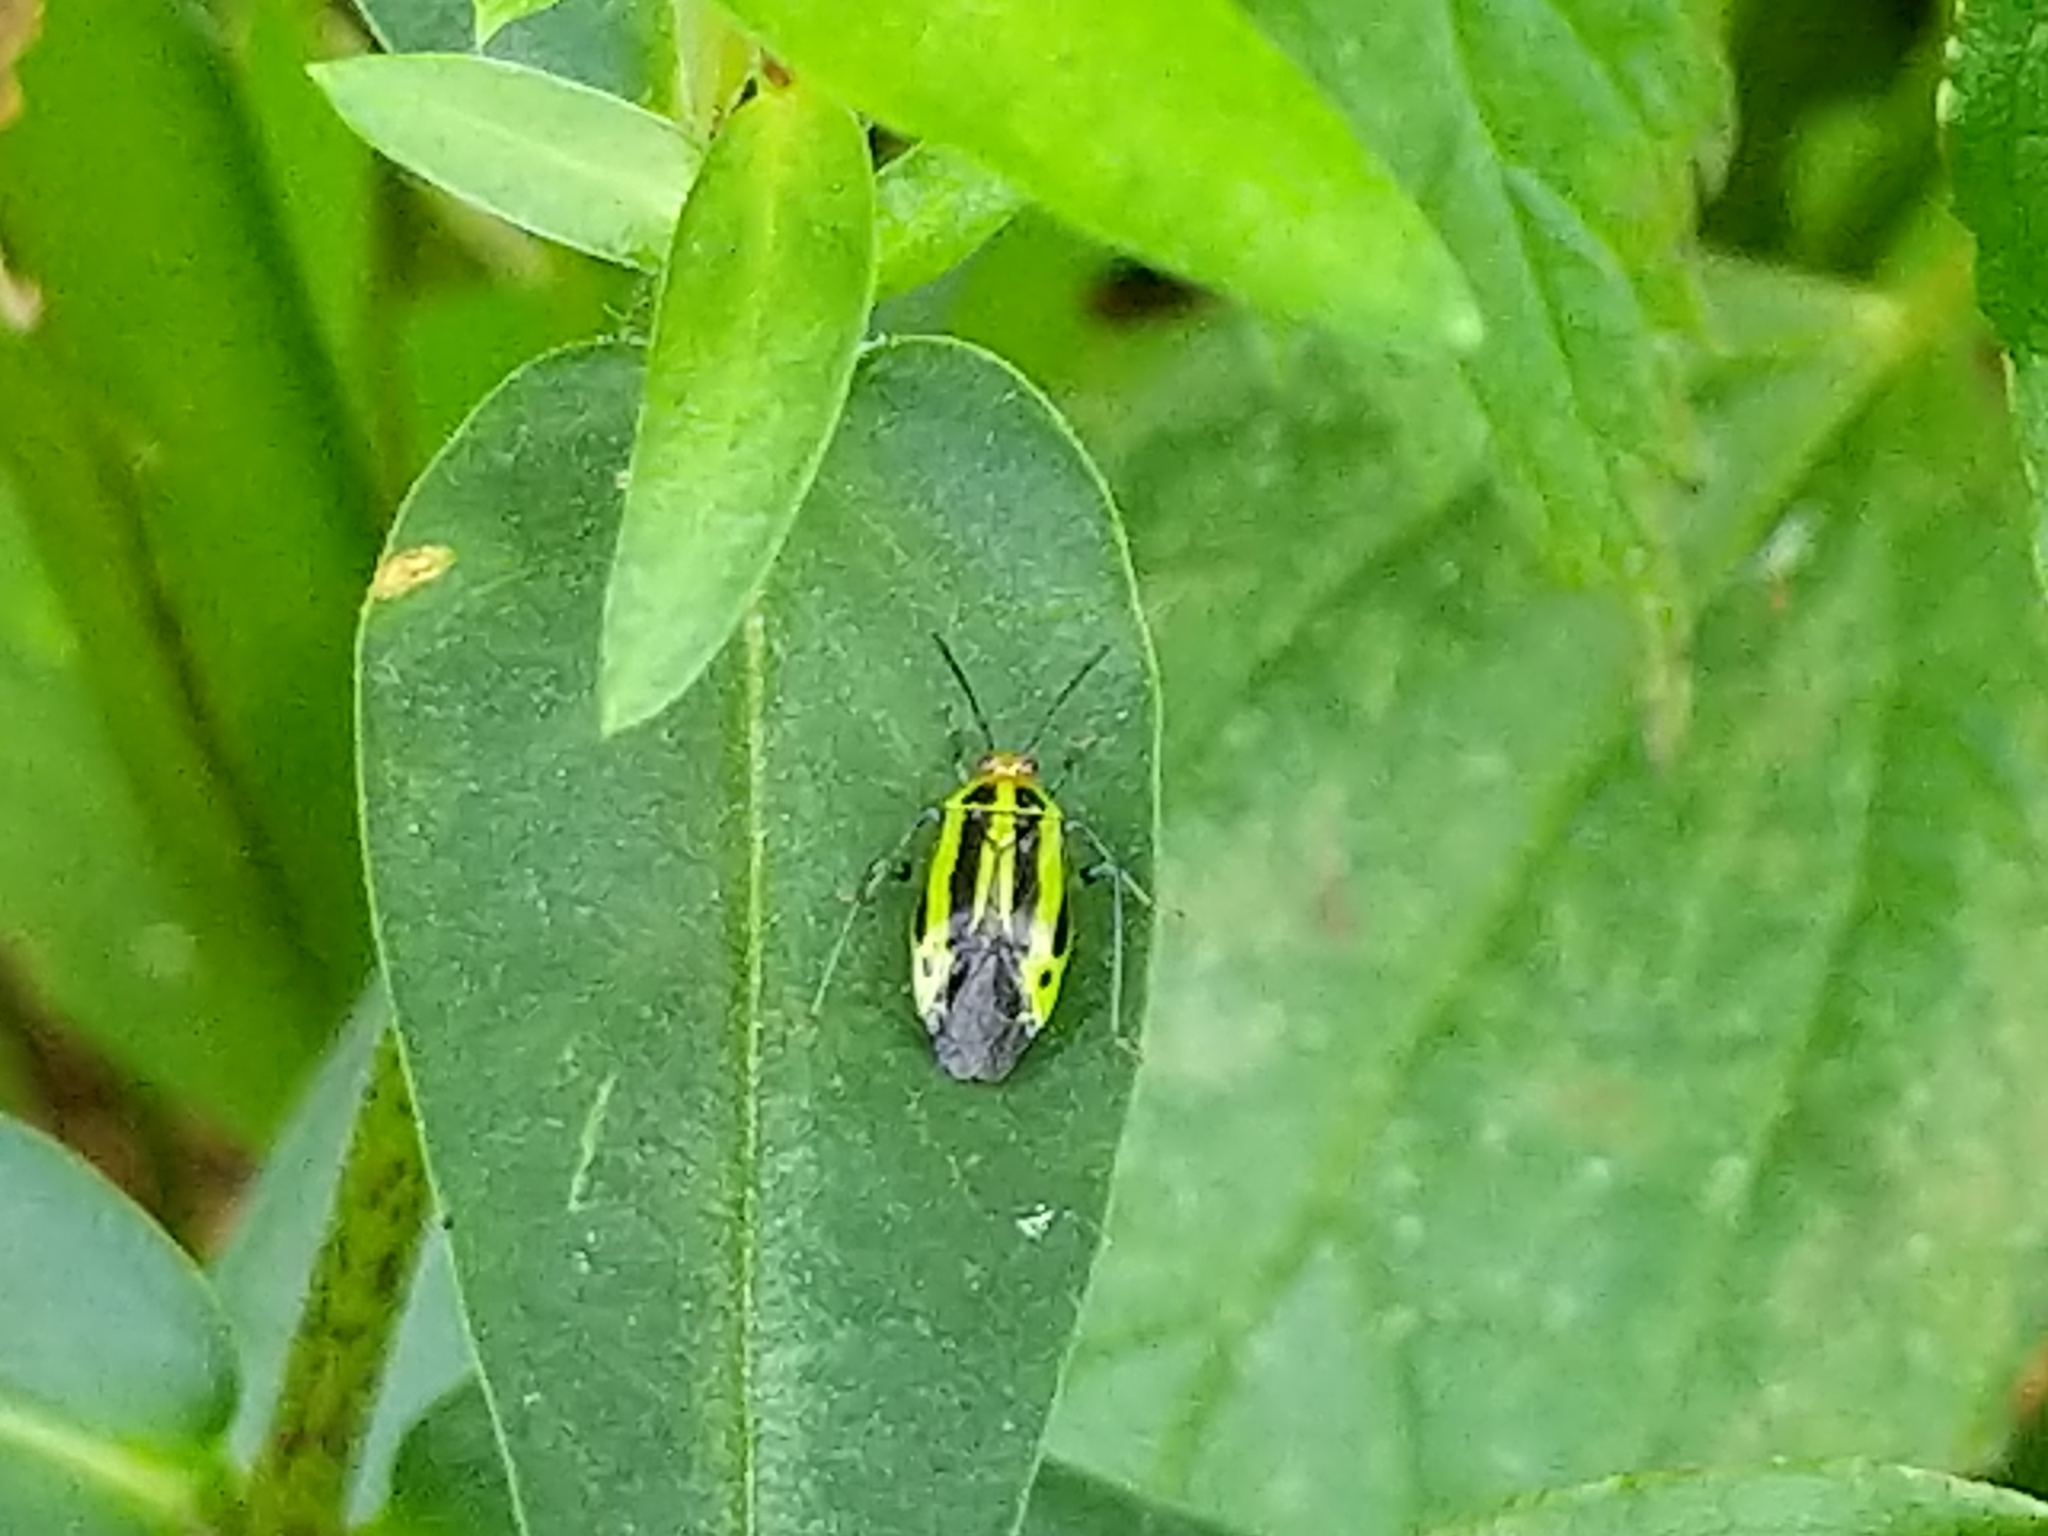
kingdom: Animalia
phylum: Arthropoda
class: Insecta
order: Hemiptera
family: Miridae
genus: Poecilocapsus
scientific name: Poecilocapsus lineatus
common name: Four-lined plant bug
